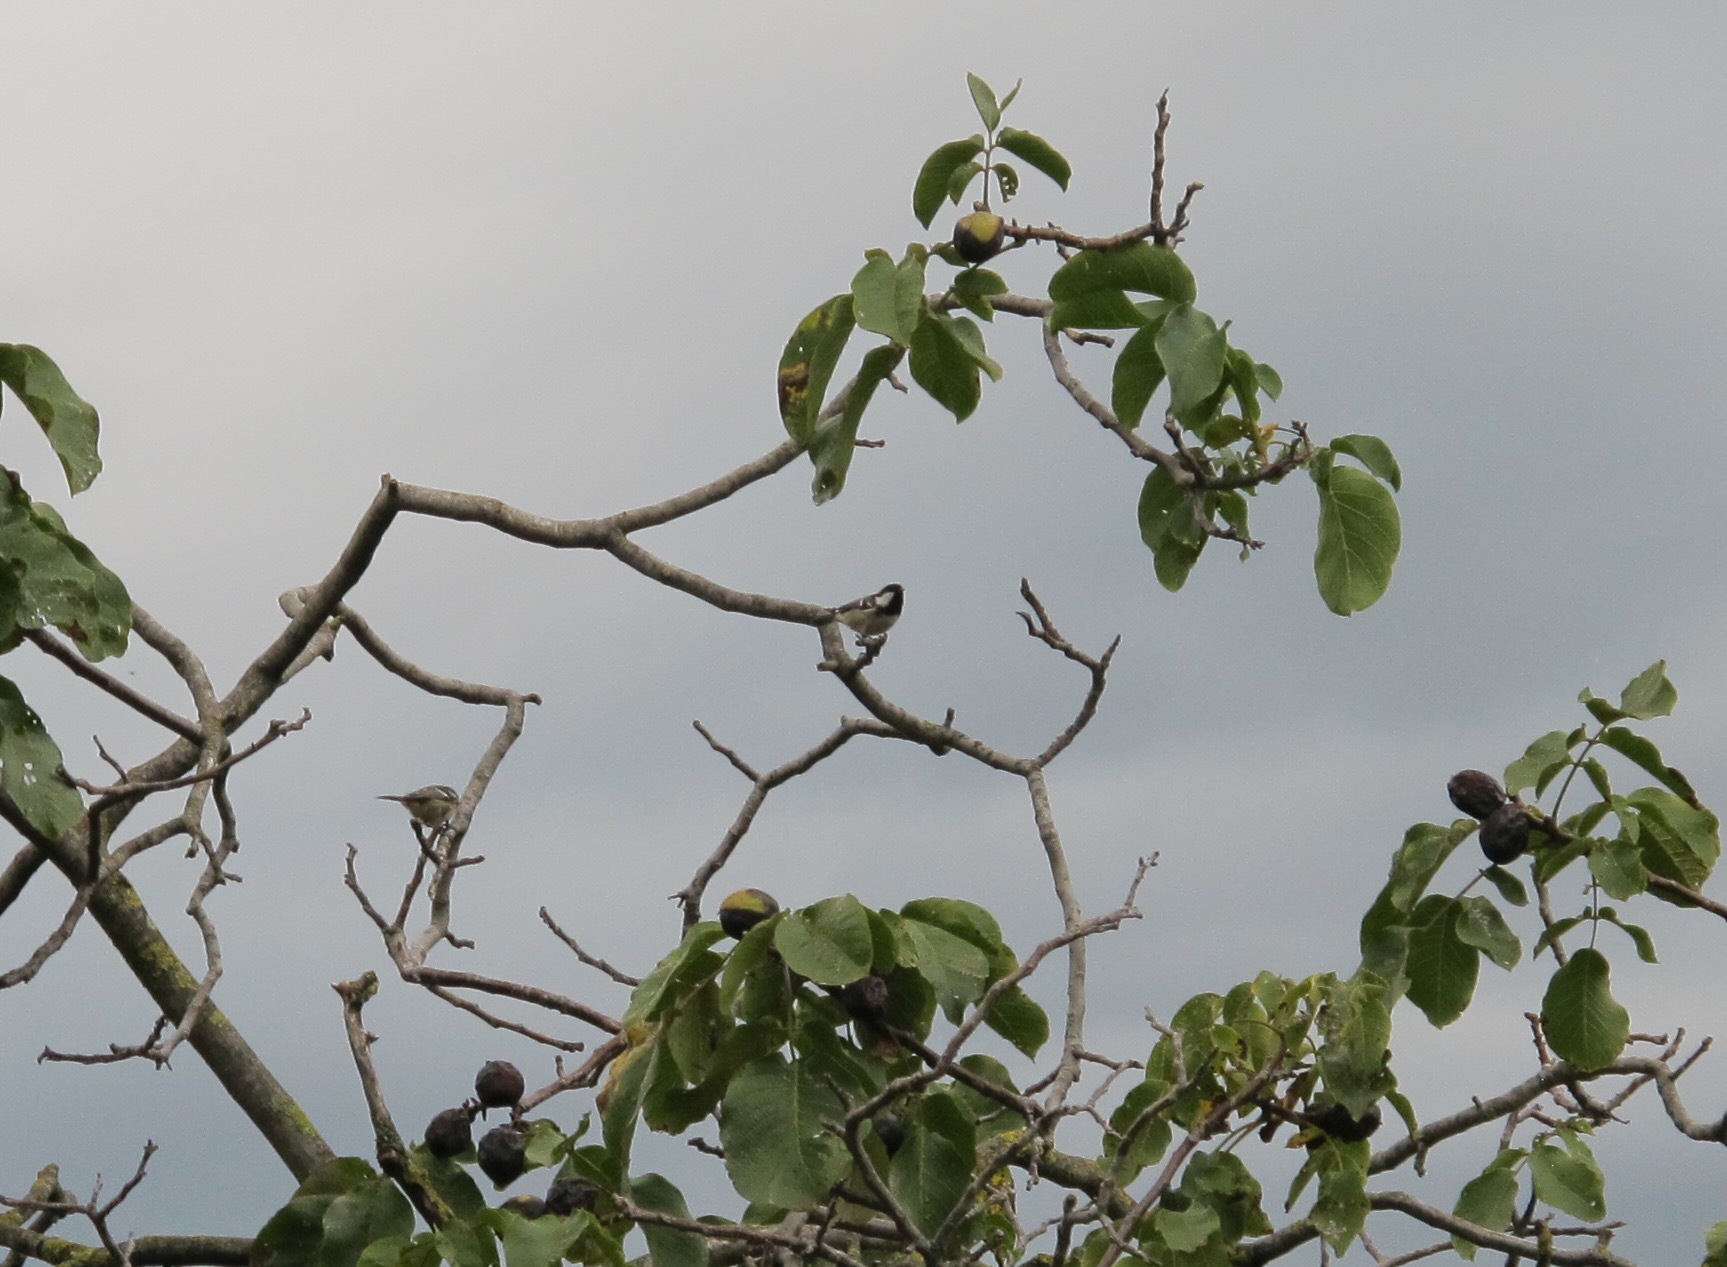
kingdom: Animalia
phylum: Chordata
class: Aves
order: Passeriformes
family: Paridae
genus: Periparus
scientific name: Periparus ater
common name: Coal tit
